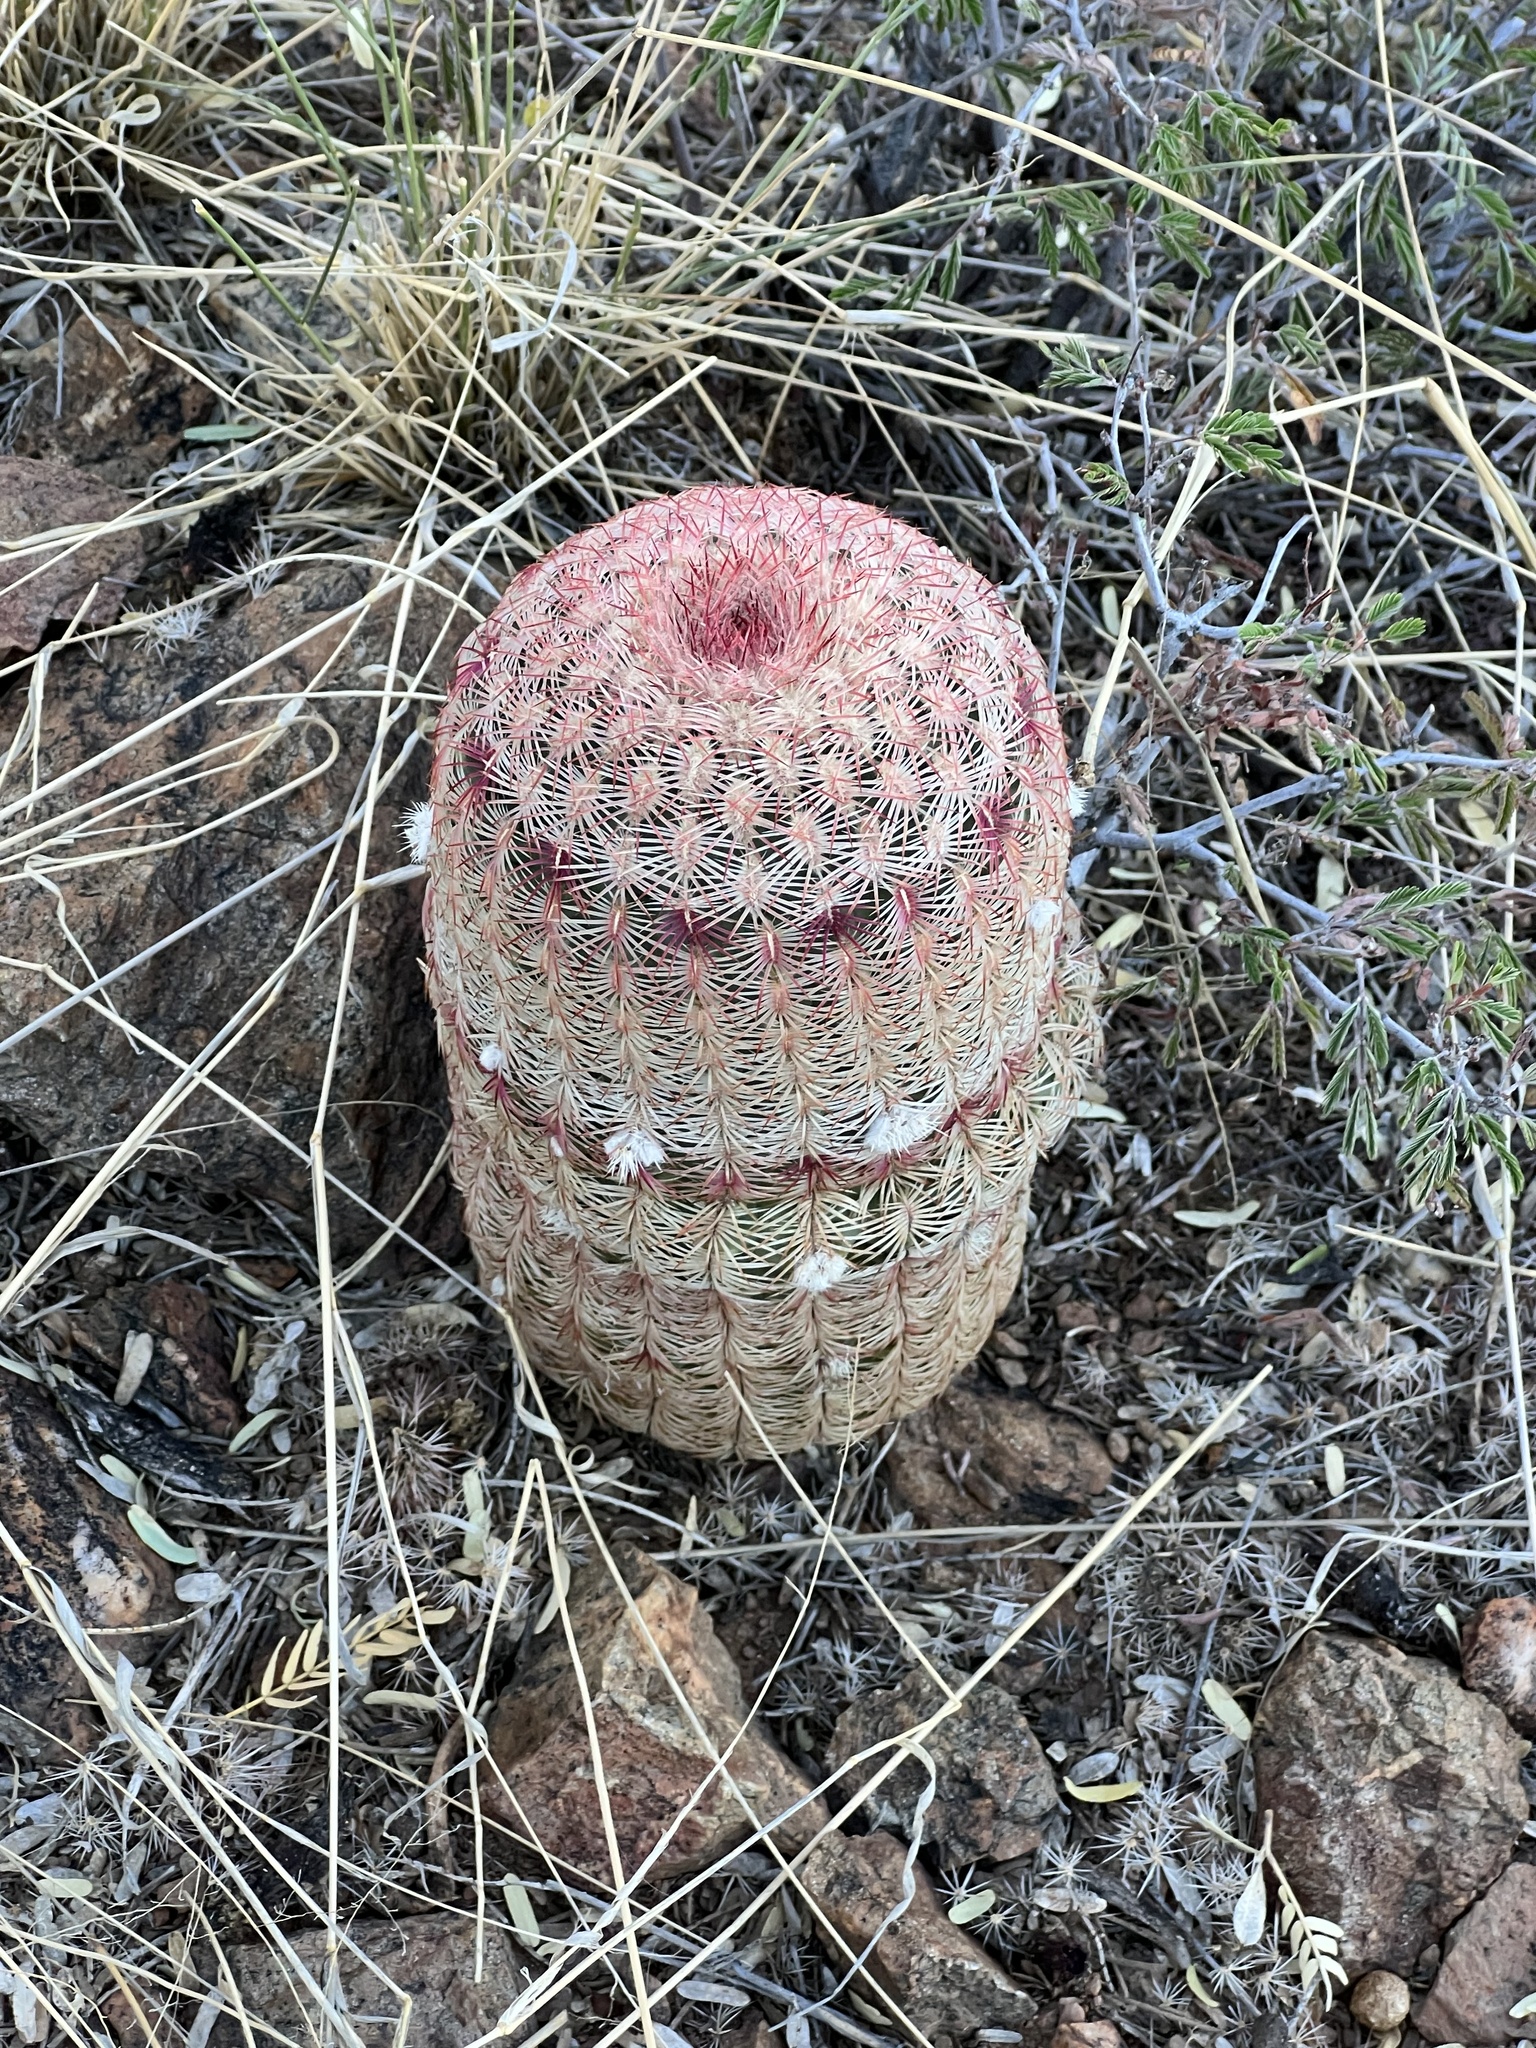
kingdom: Plantae
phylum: Tracheophyta
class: Magnoliopsida
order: Caryophyllales
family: Cactaceae
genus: Echinocereus
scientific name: Echinocereus rigidissimus
